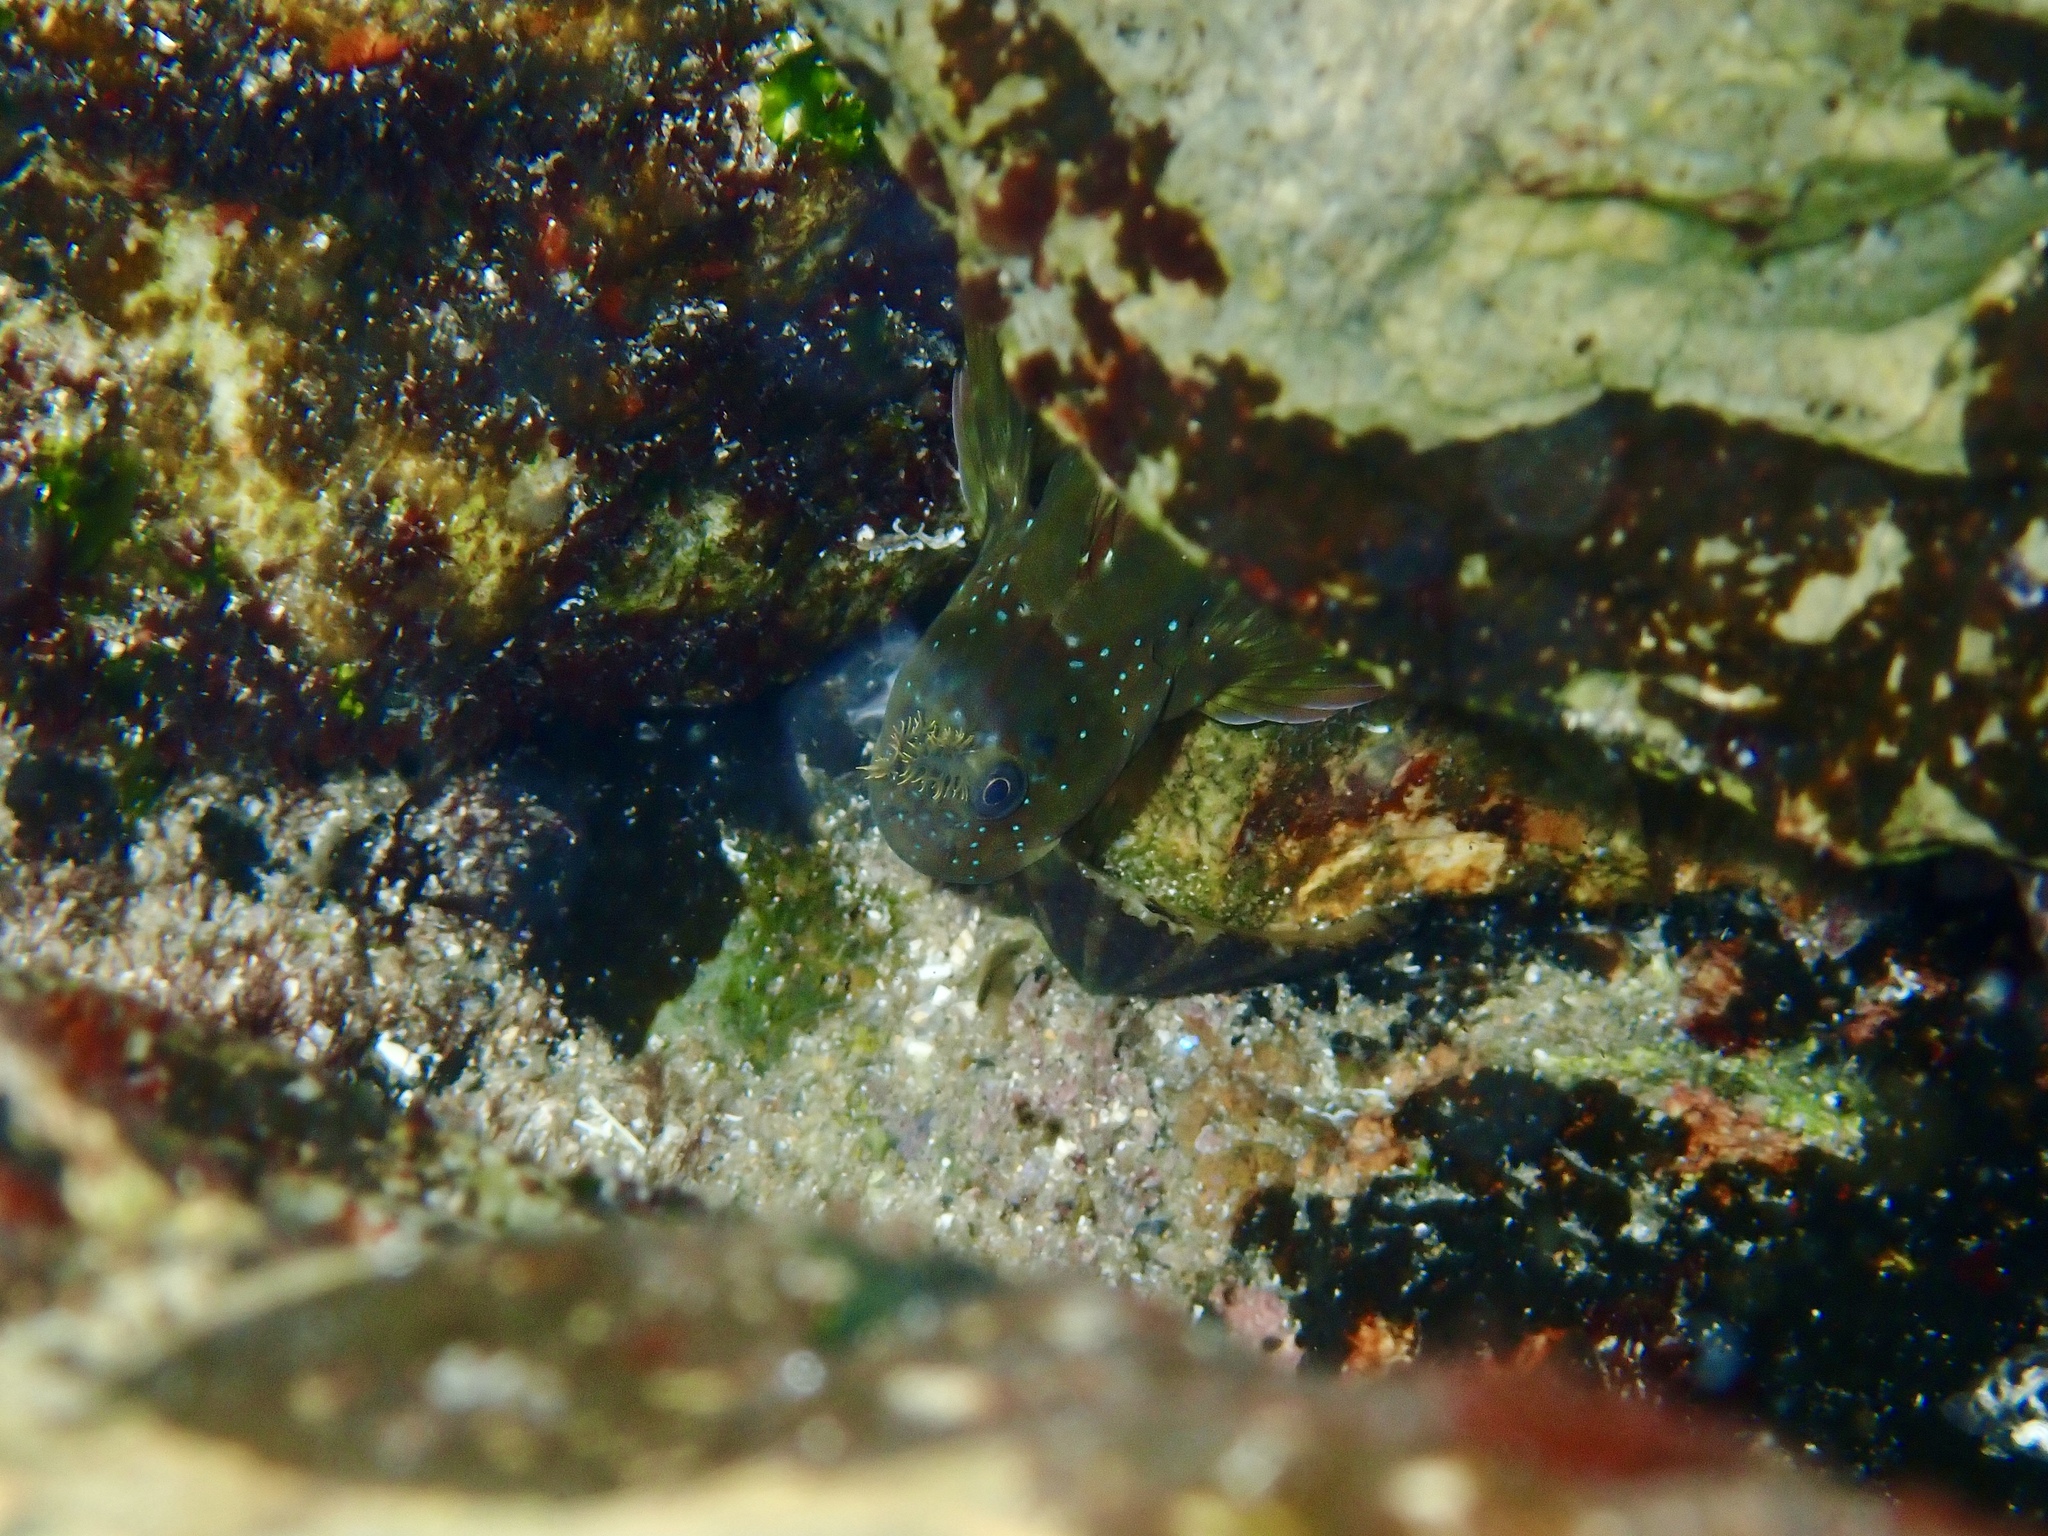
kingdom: Animalia
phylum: Chordata
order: Perciformes
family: Blenniidae
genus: Istiblennius
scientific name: Istiblennius meleagris
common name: Peacock rockskipper
